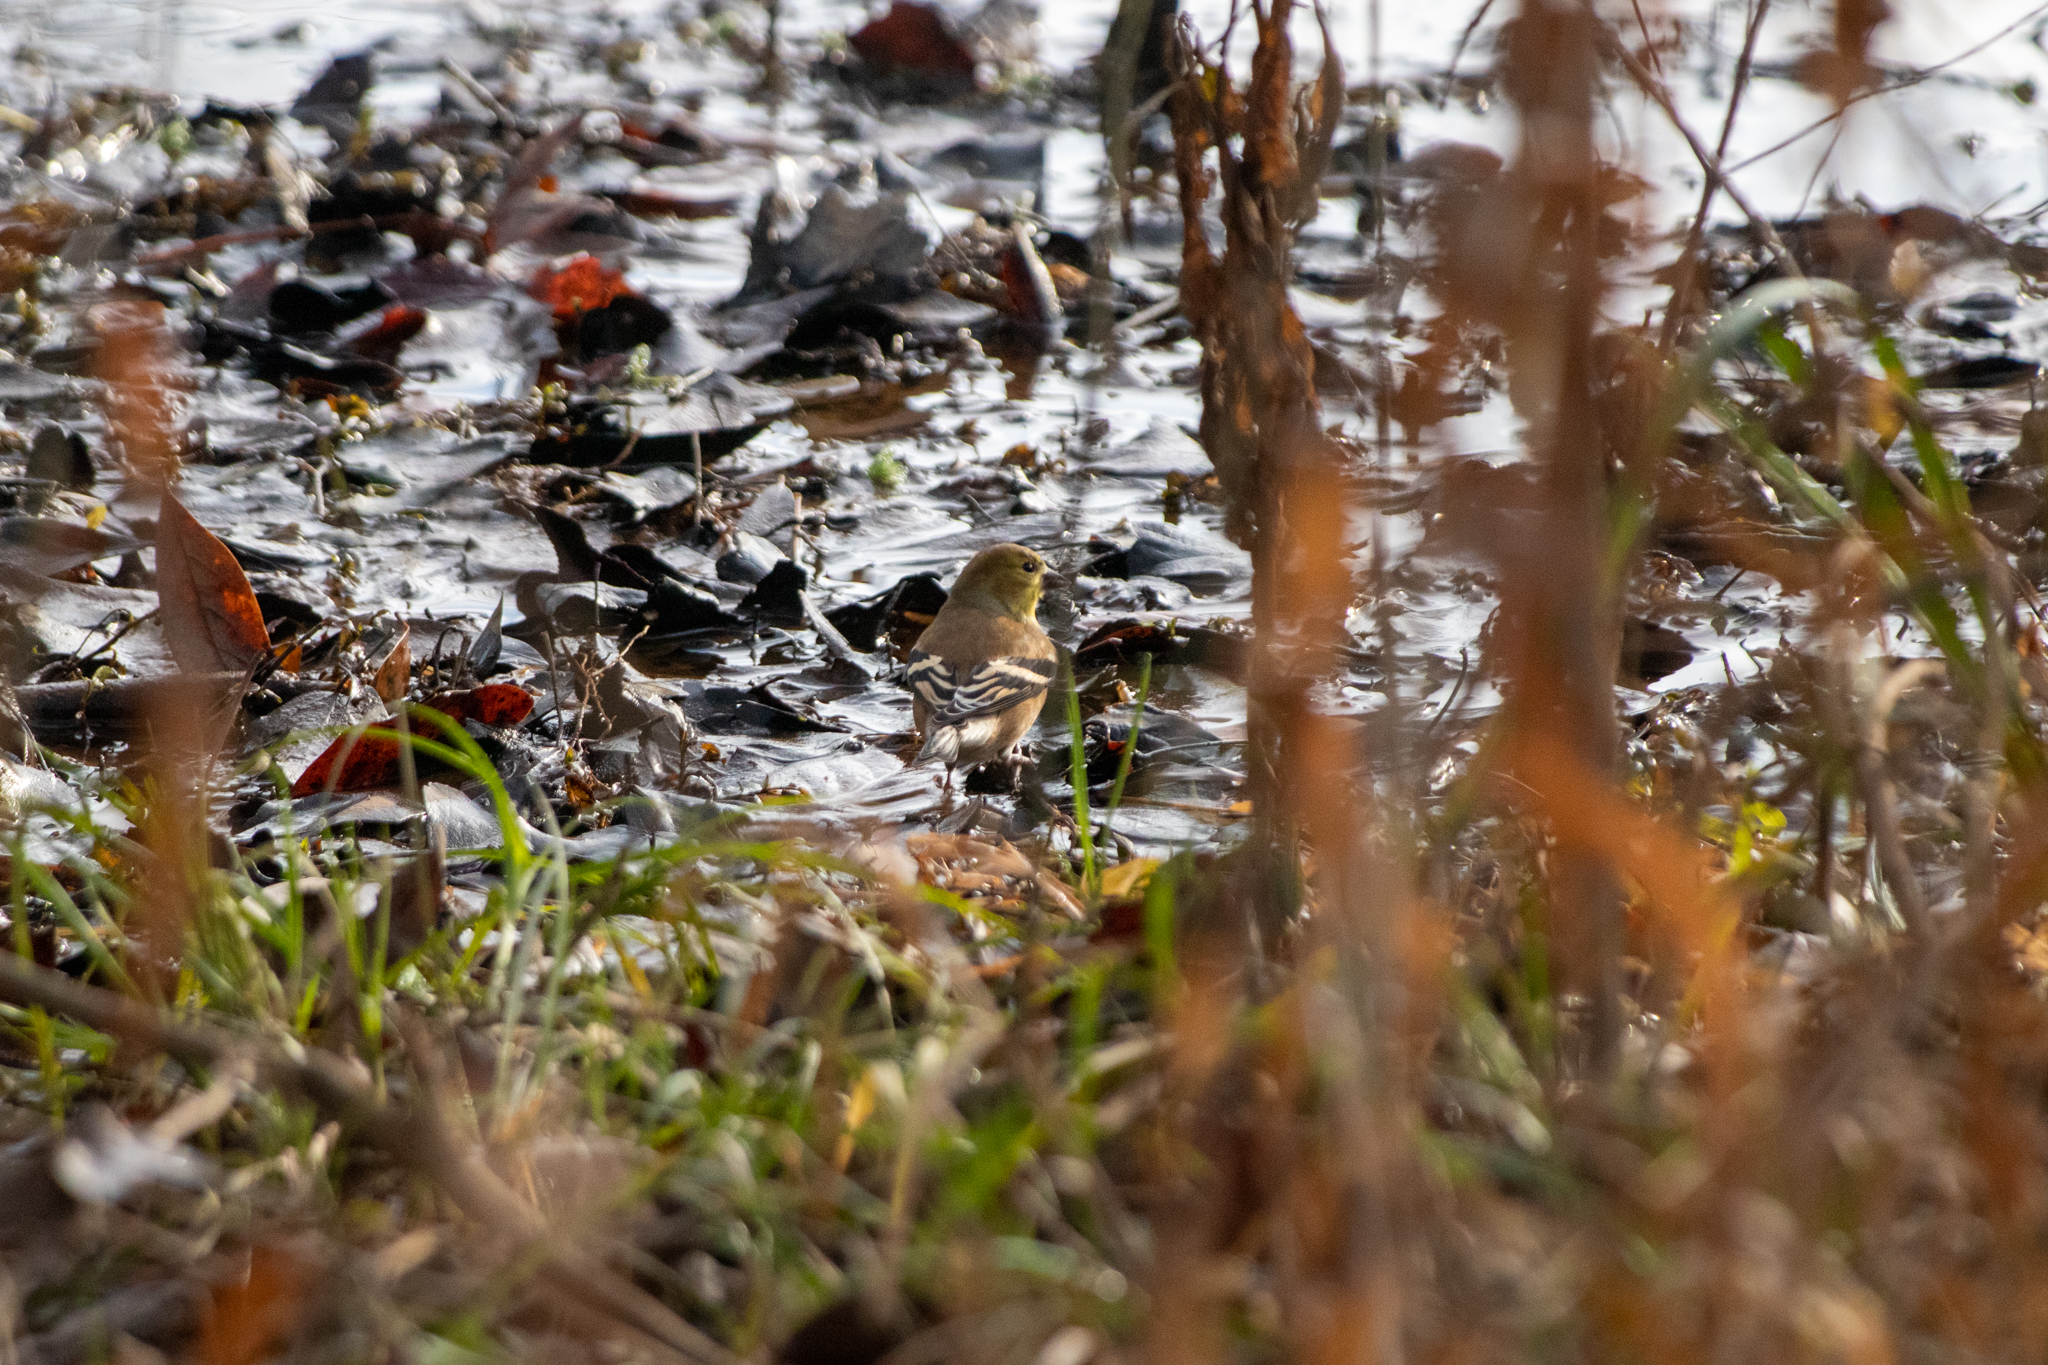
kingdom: Animalia
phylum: Chordata
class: Aves
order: Passeriformes
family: Fringillidae
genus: Spinus
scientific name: Spinus tristis
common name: American goldfinch
